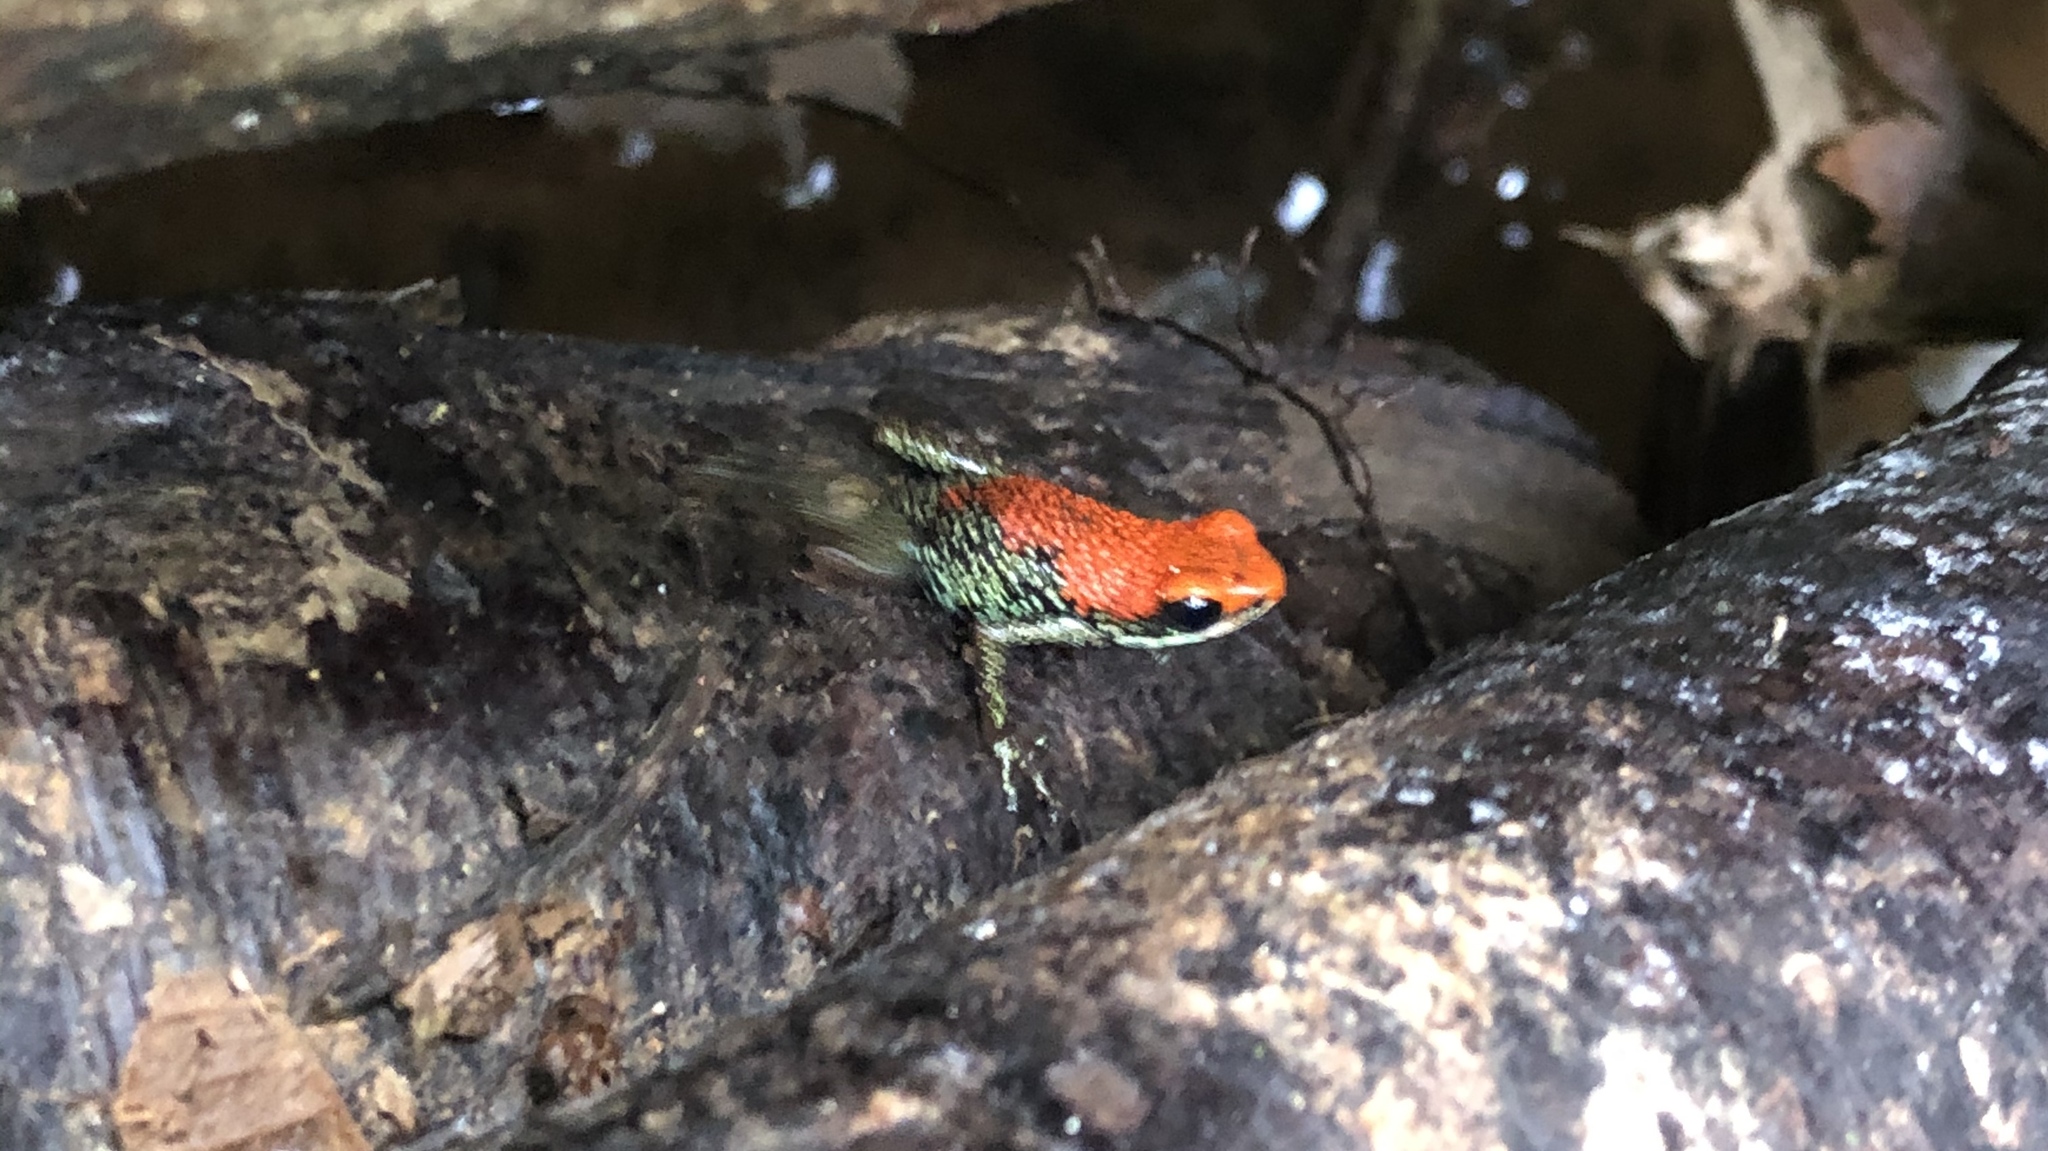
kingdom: Animalia
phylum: Chordata
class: Amphibia
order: Anura
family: Dendrobatidae
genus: Oophaga
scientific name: Oophaga granulifera
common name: Granular poison frog
